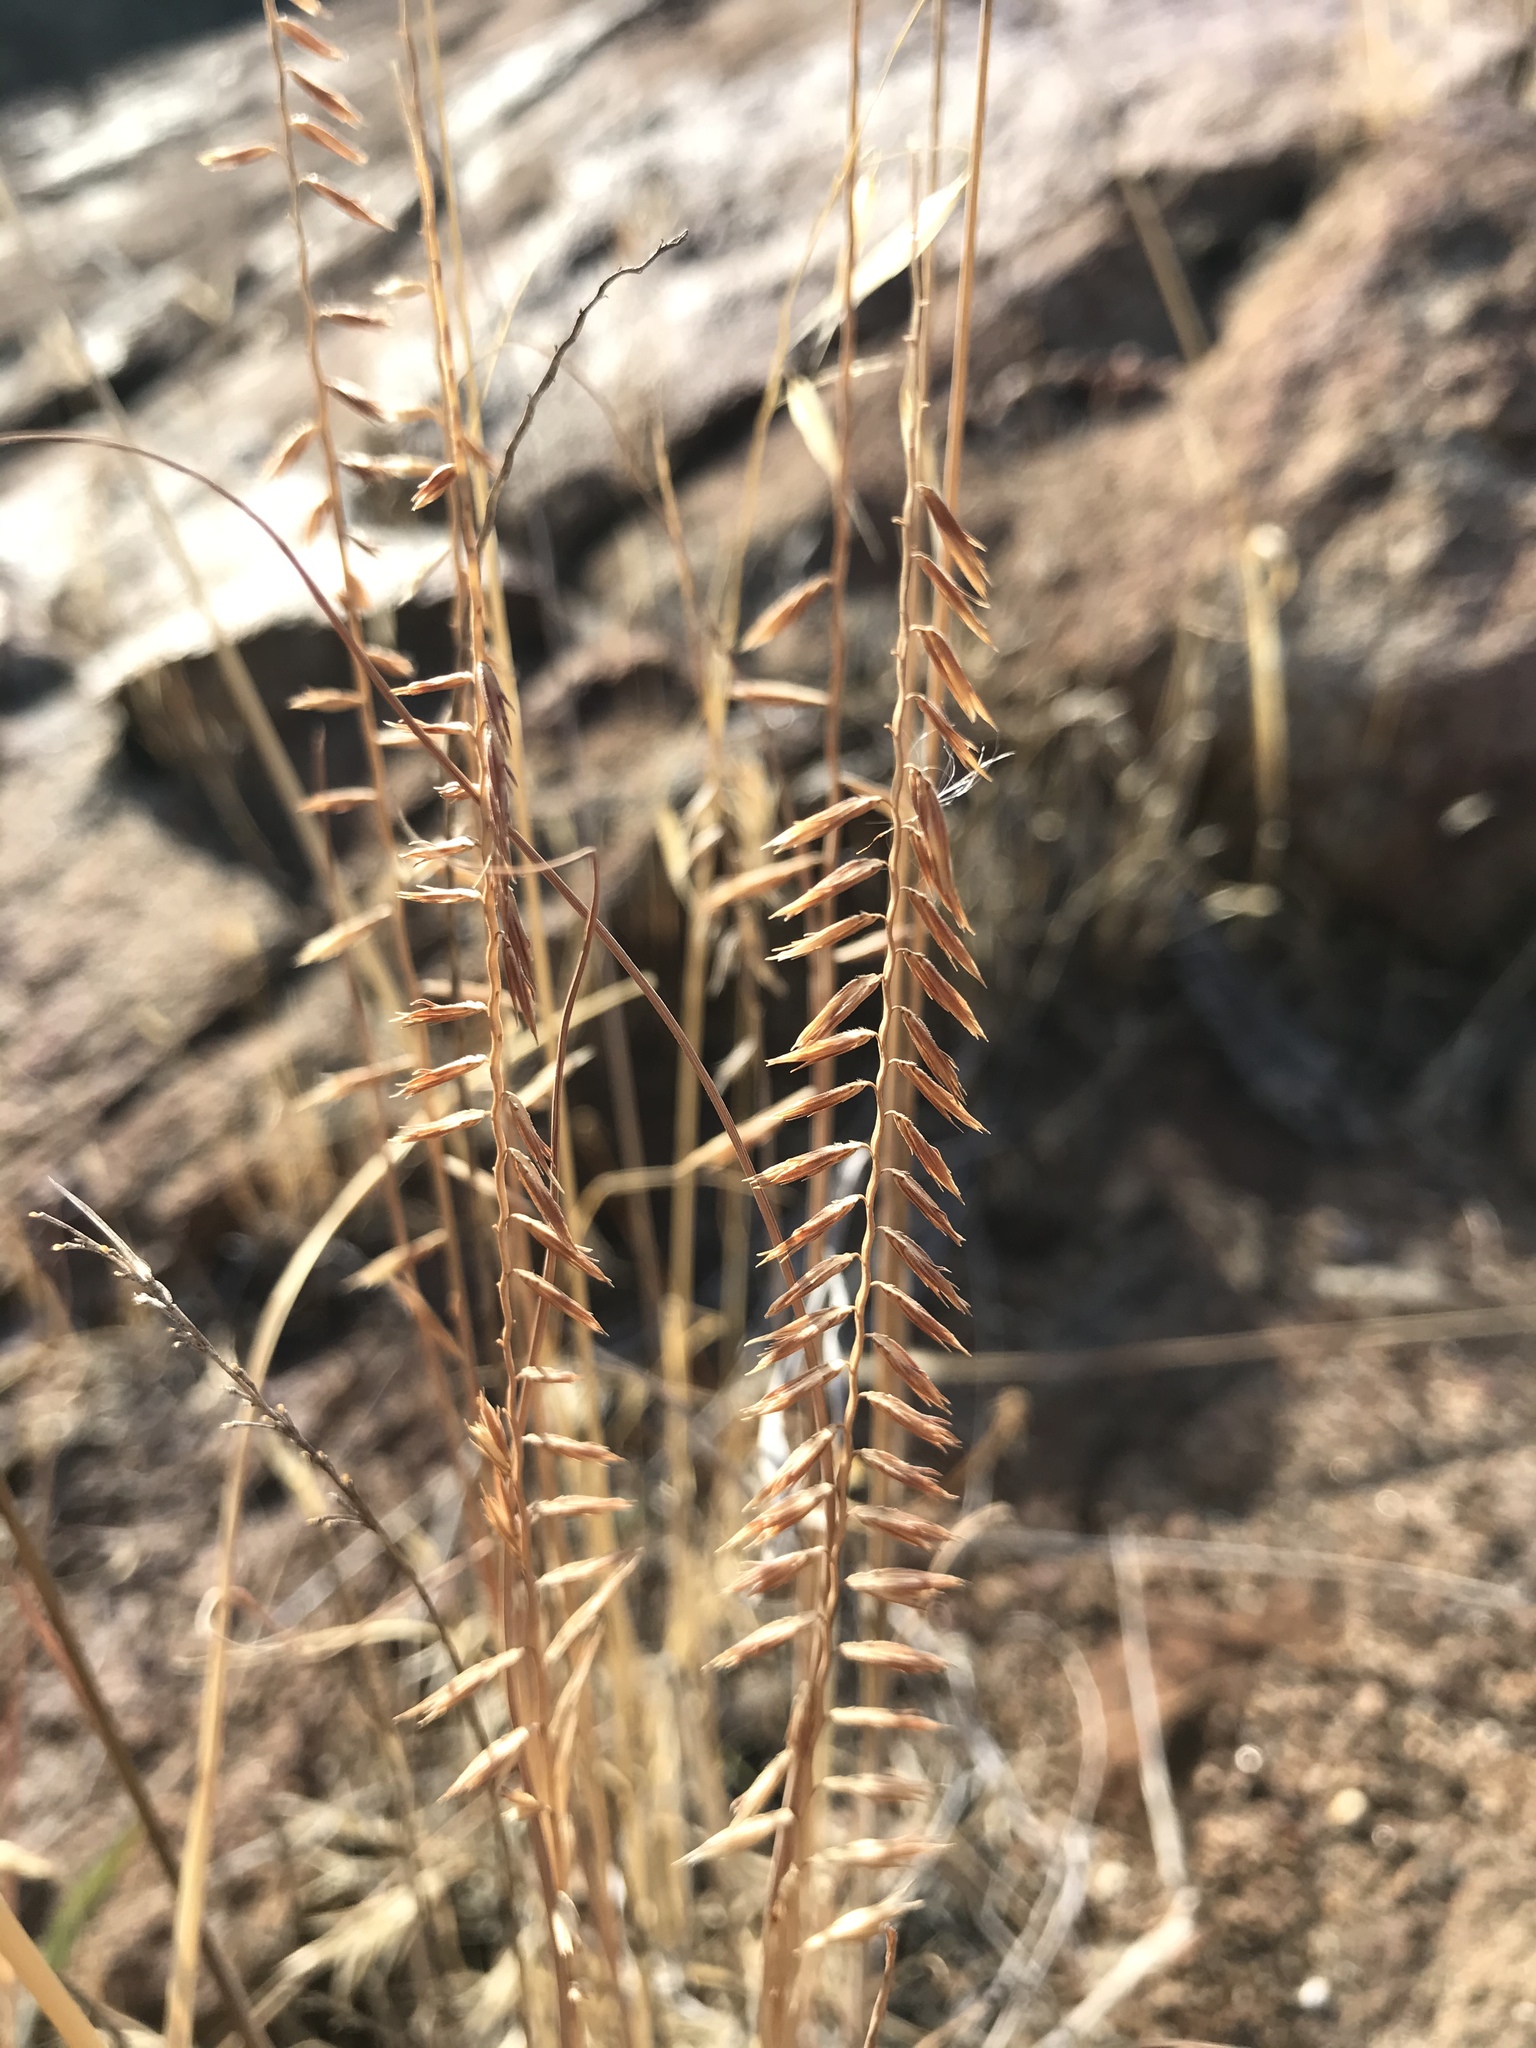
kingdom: Plantae
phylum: Tracheophyta
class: Liliopsida
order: Poales
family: Poaceae
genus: Bouteloua
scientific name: Bouteloua curtipendula
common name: Side-oats grama
